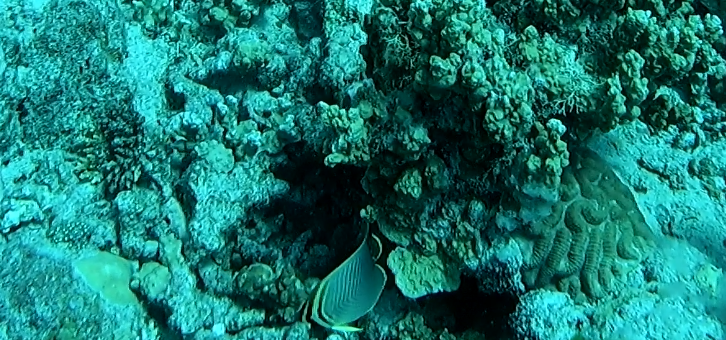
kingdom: Animalia
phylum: Chordata
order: Perciformes
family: Chaetodontidae
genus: Chaetodon
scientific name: Chaetodon baronessa
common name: Triangular butterflyfish
